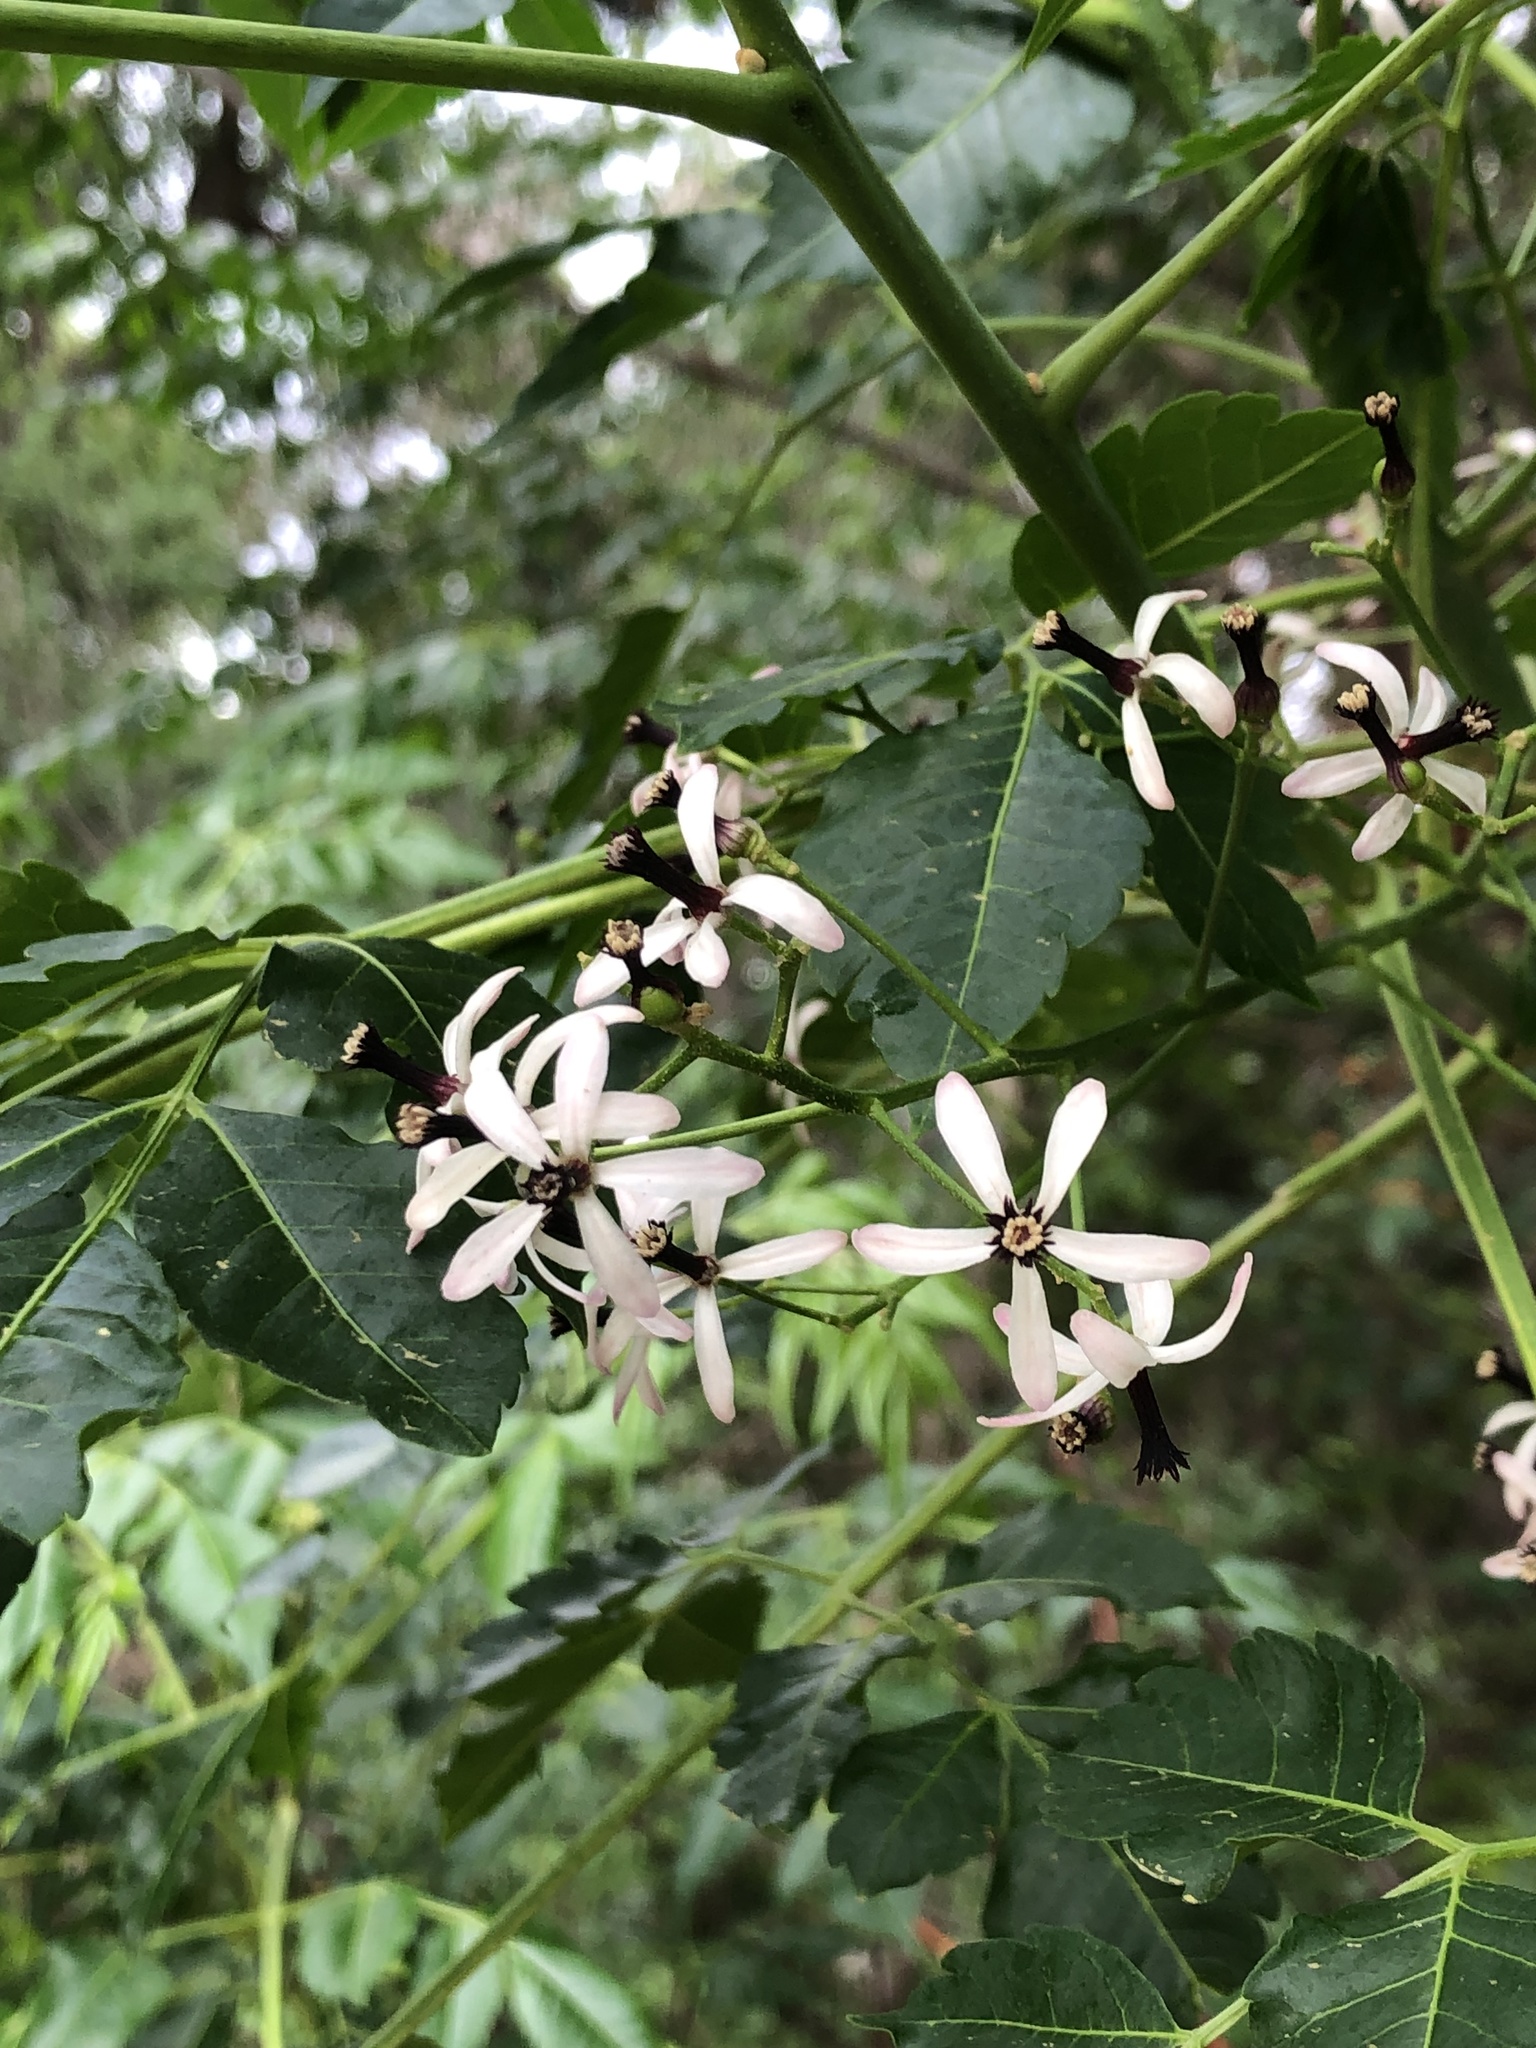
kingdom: Plantae
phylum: Tracheophyta
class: Magnoliopsida
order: Sapindales
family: Meliaceae
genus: Melia
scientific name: Melia azedarach
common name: Chinaberrytree
